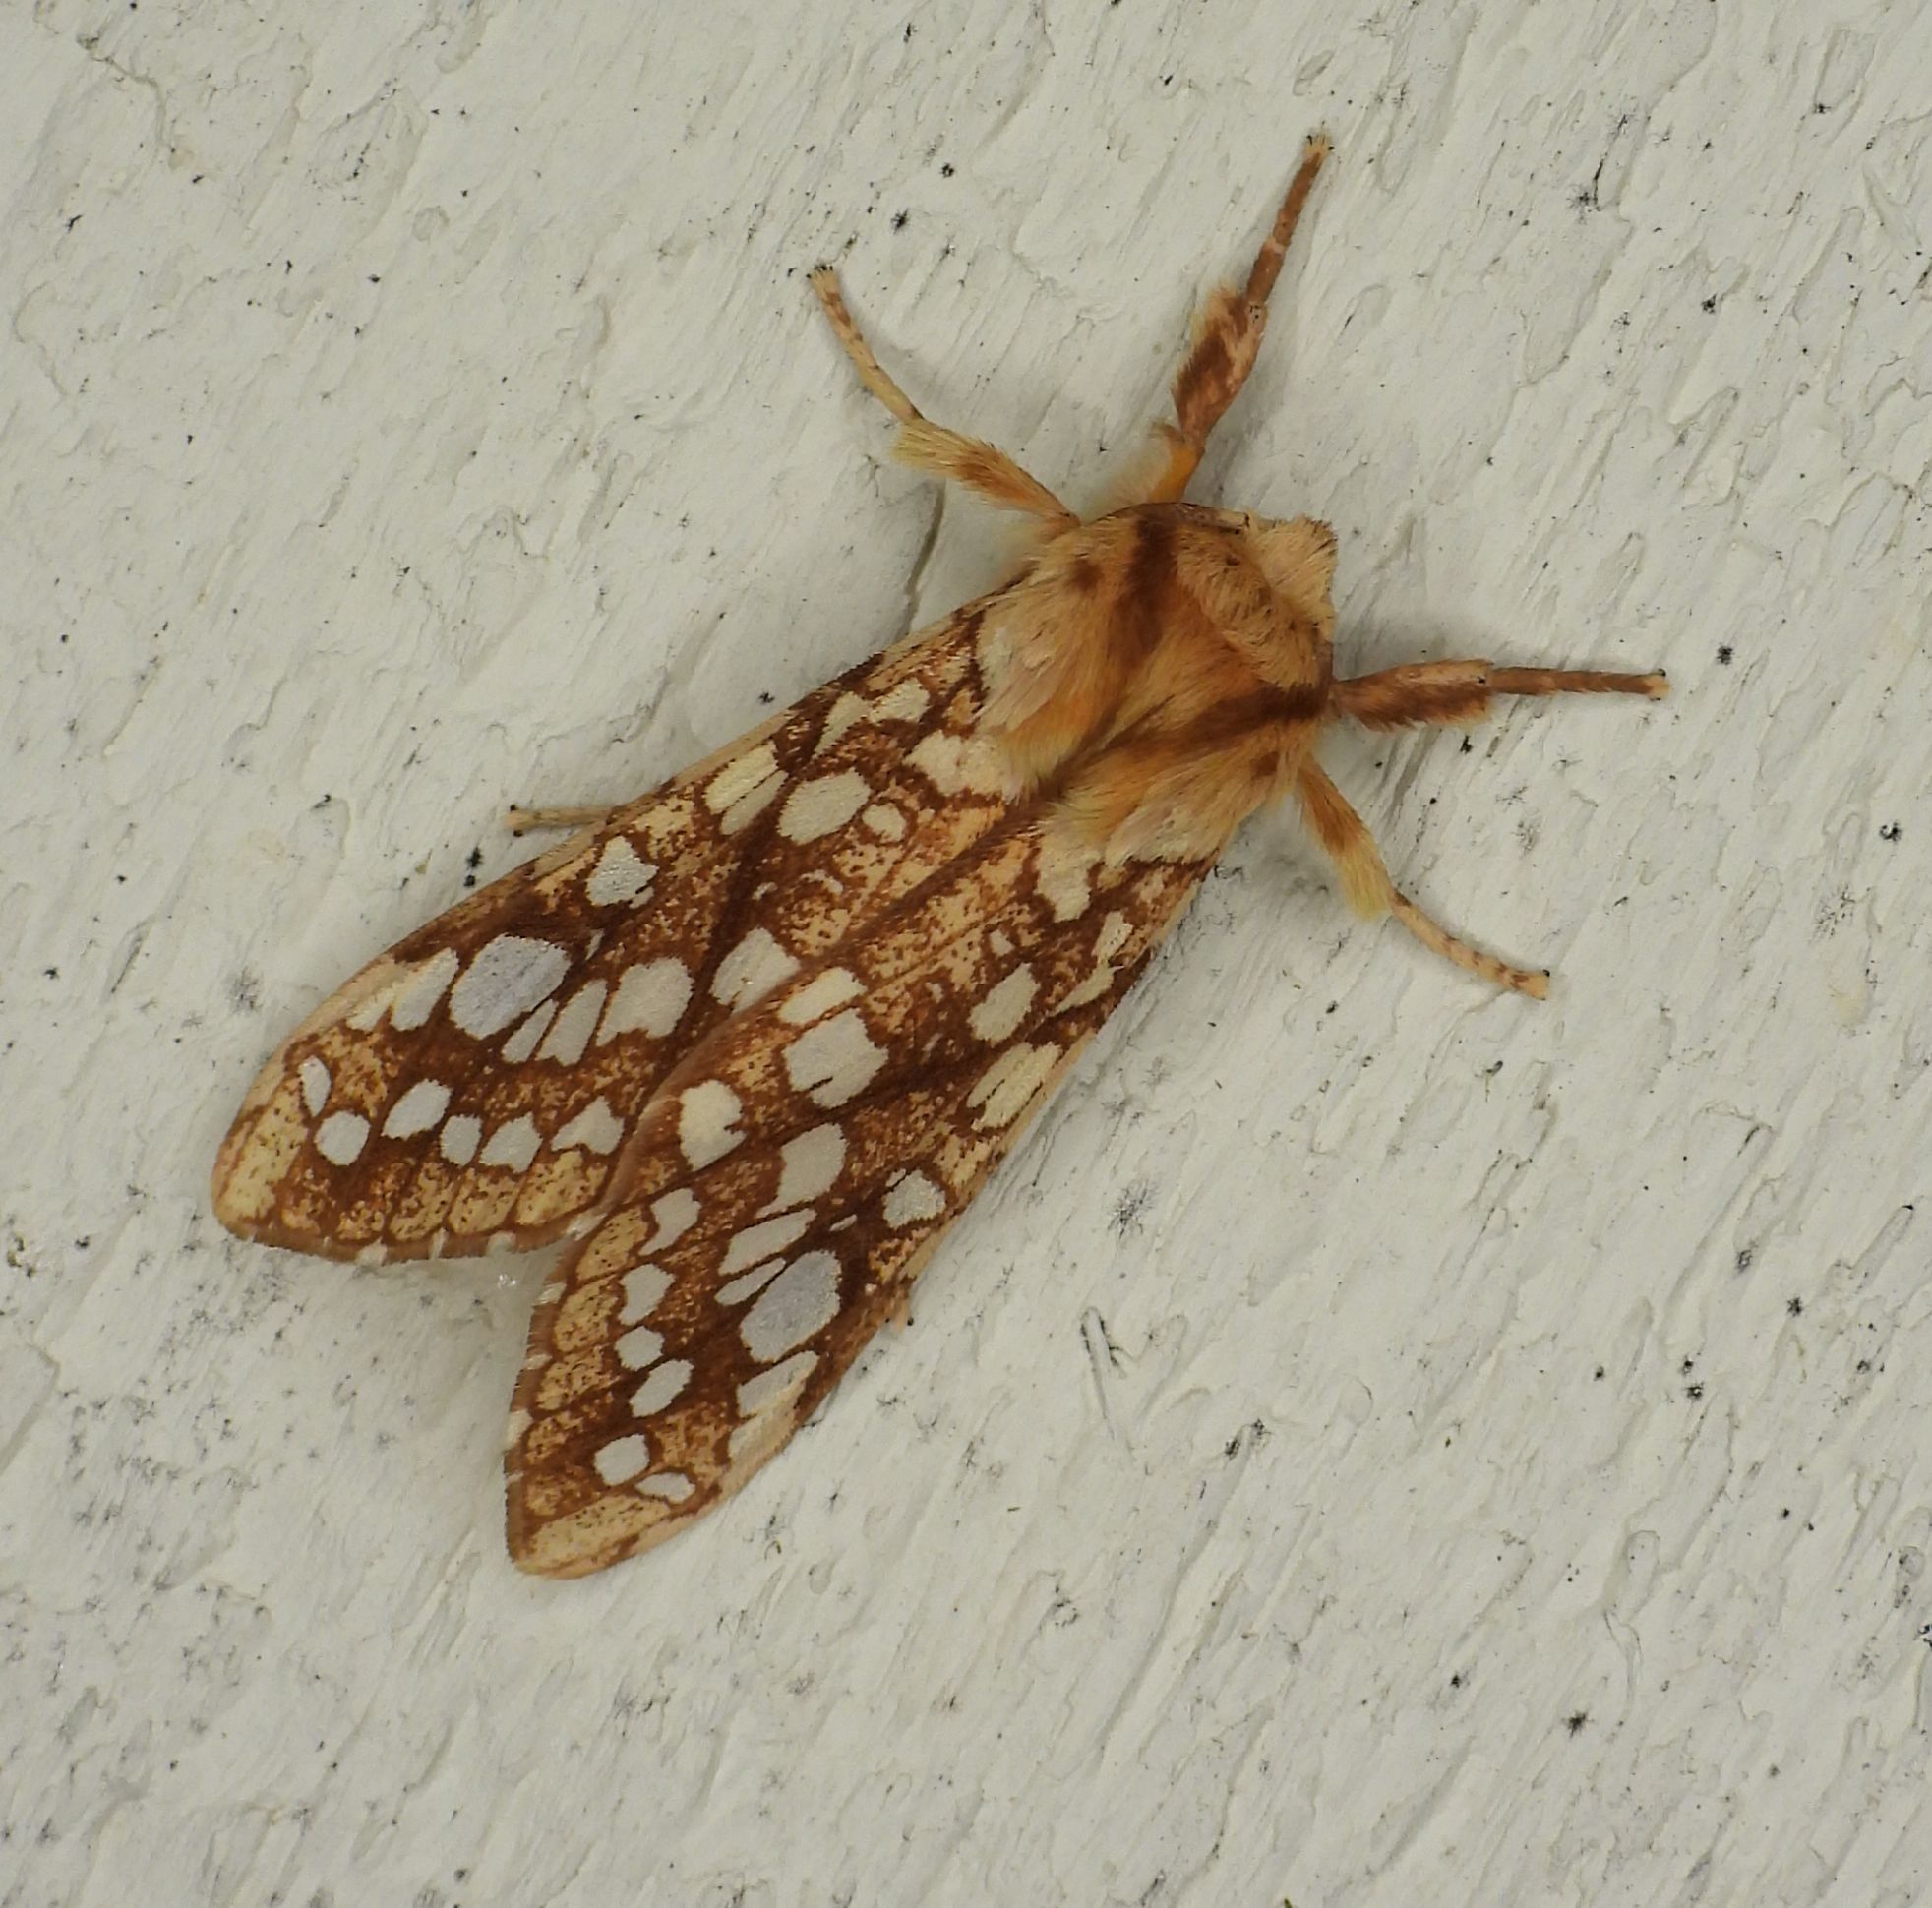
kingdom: Animalia
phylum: Arthropoda
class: Insecta
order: Lepidoptera
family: Erebidae
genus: Lophocampa
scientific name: Lophocampa caryae
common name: Hickory tussock moth
